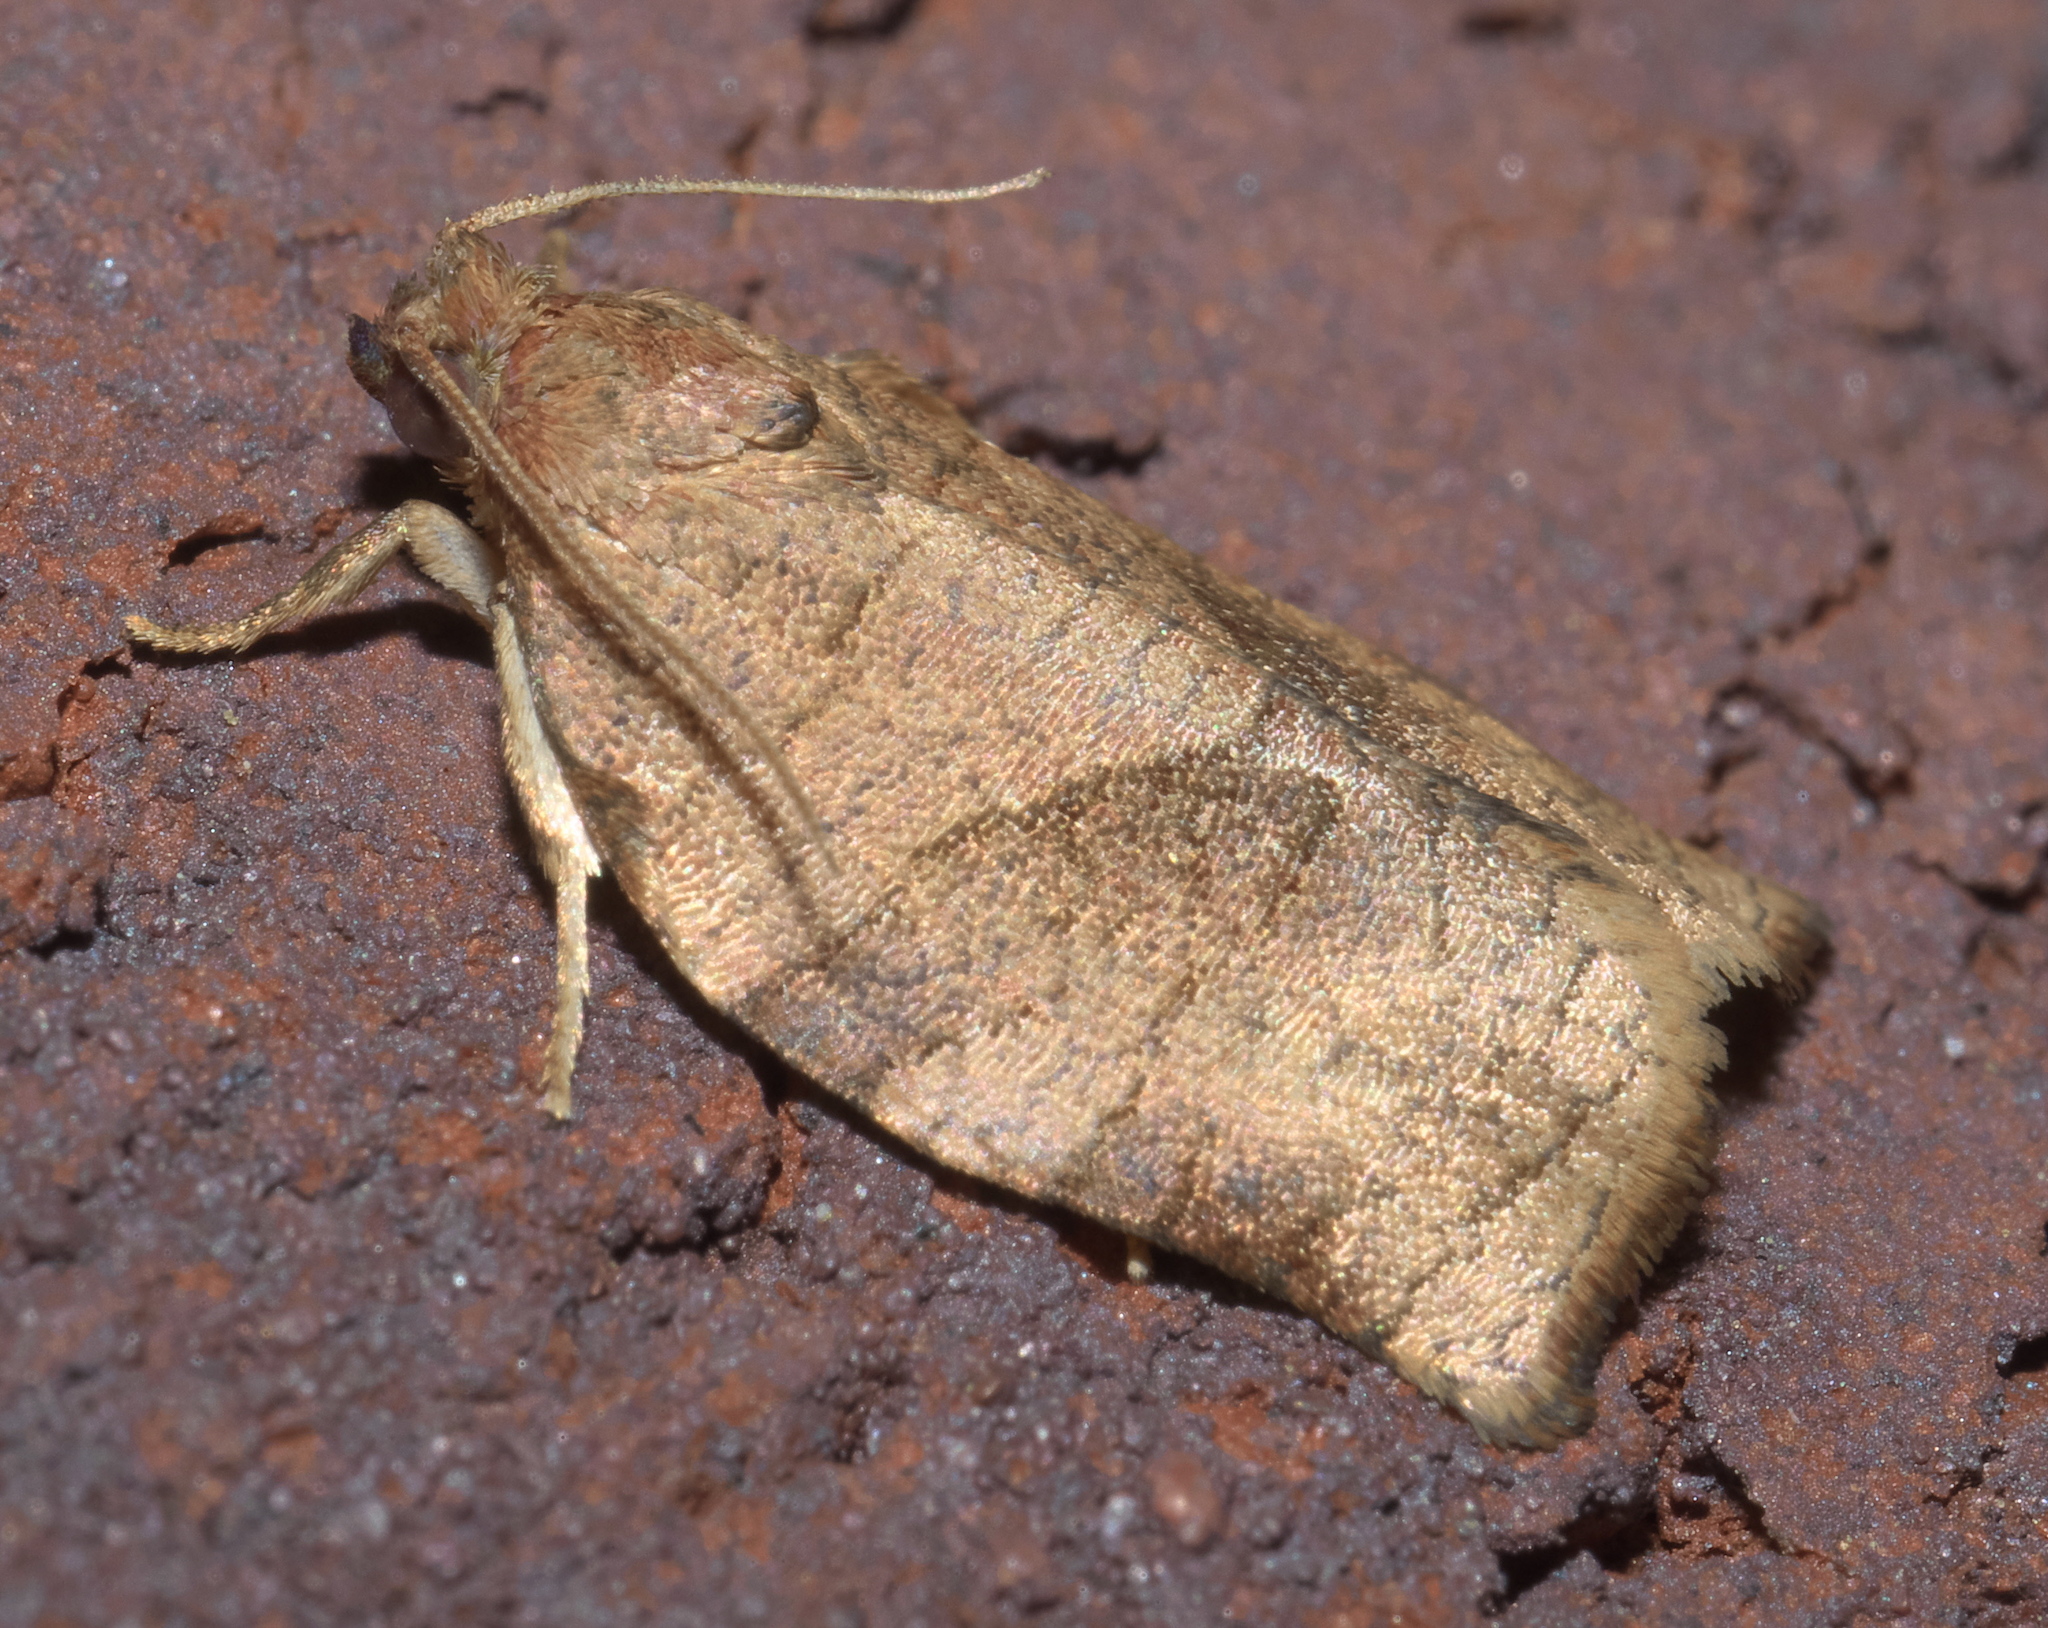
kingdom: Animalia
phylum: Arthropoda
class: Insecta
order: Lepidoptera
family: Tortricidae
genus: Choristoneura
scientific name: Choristoneura rosaceana
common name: Oblique-banded leafroller moth
